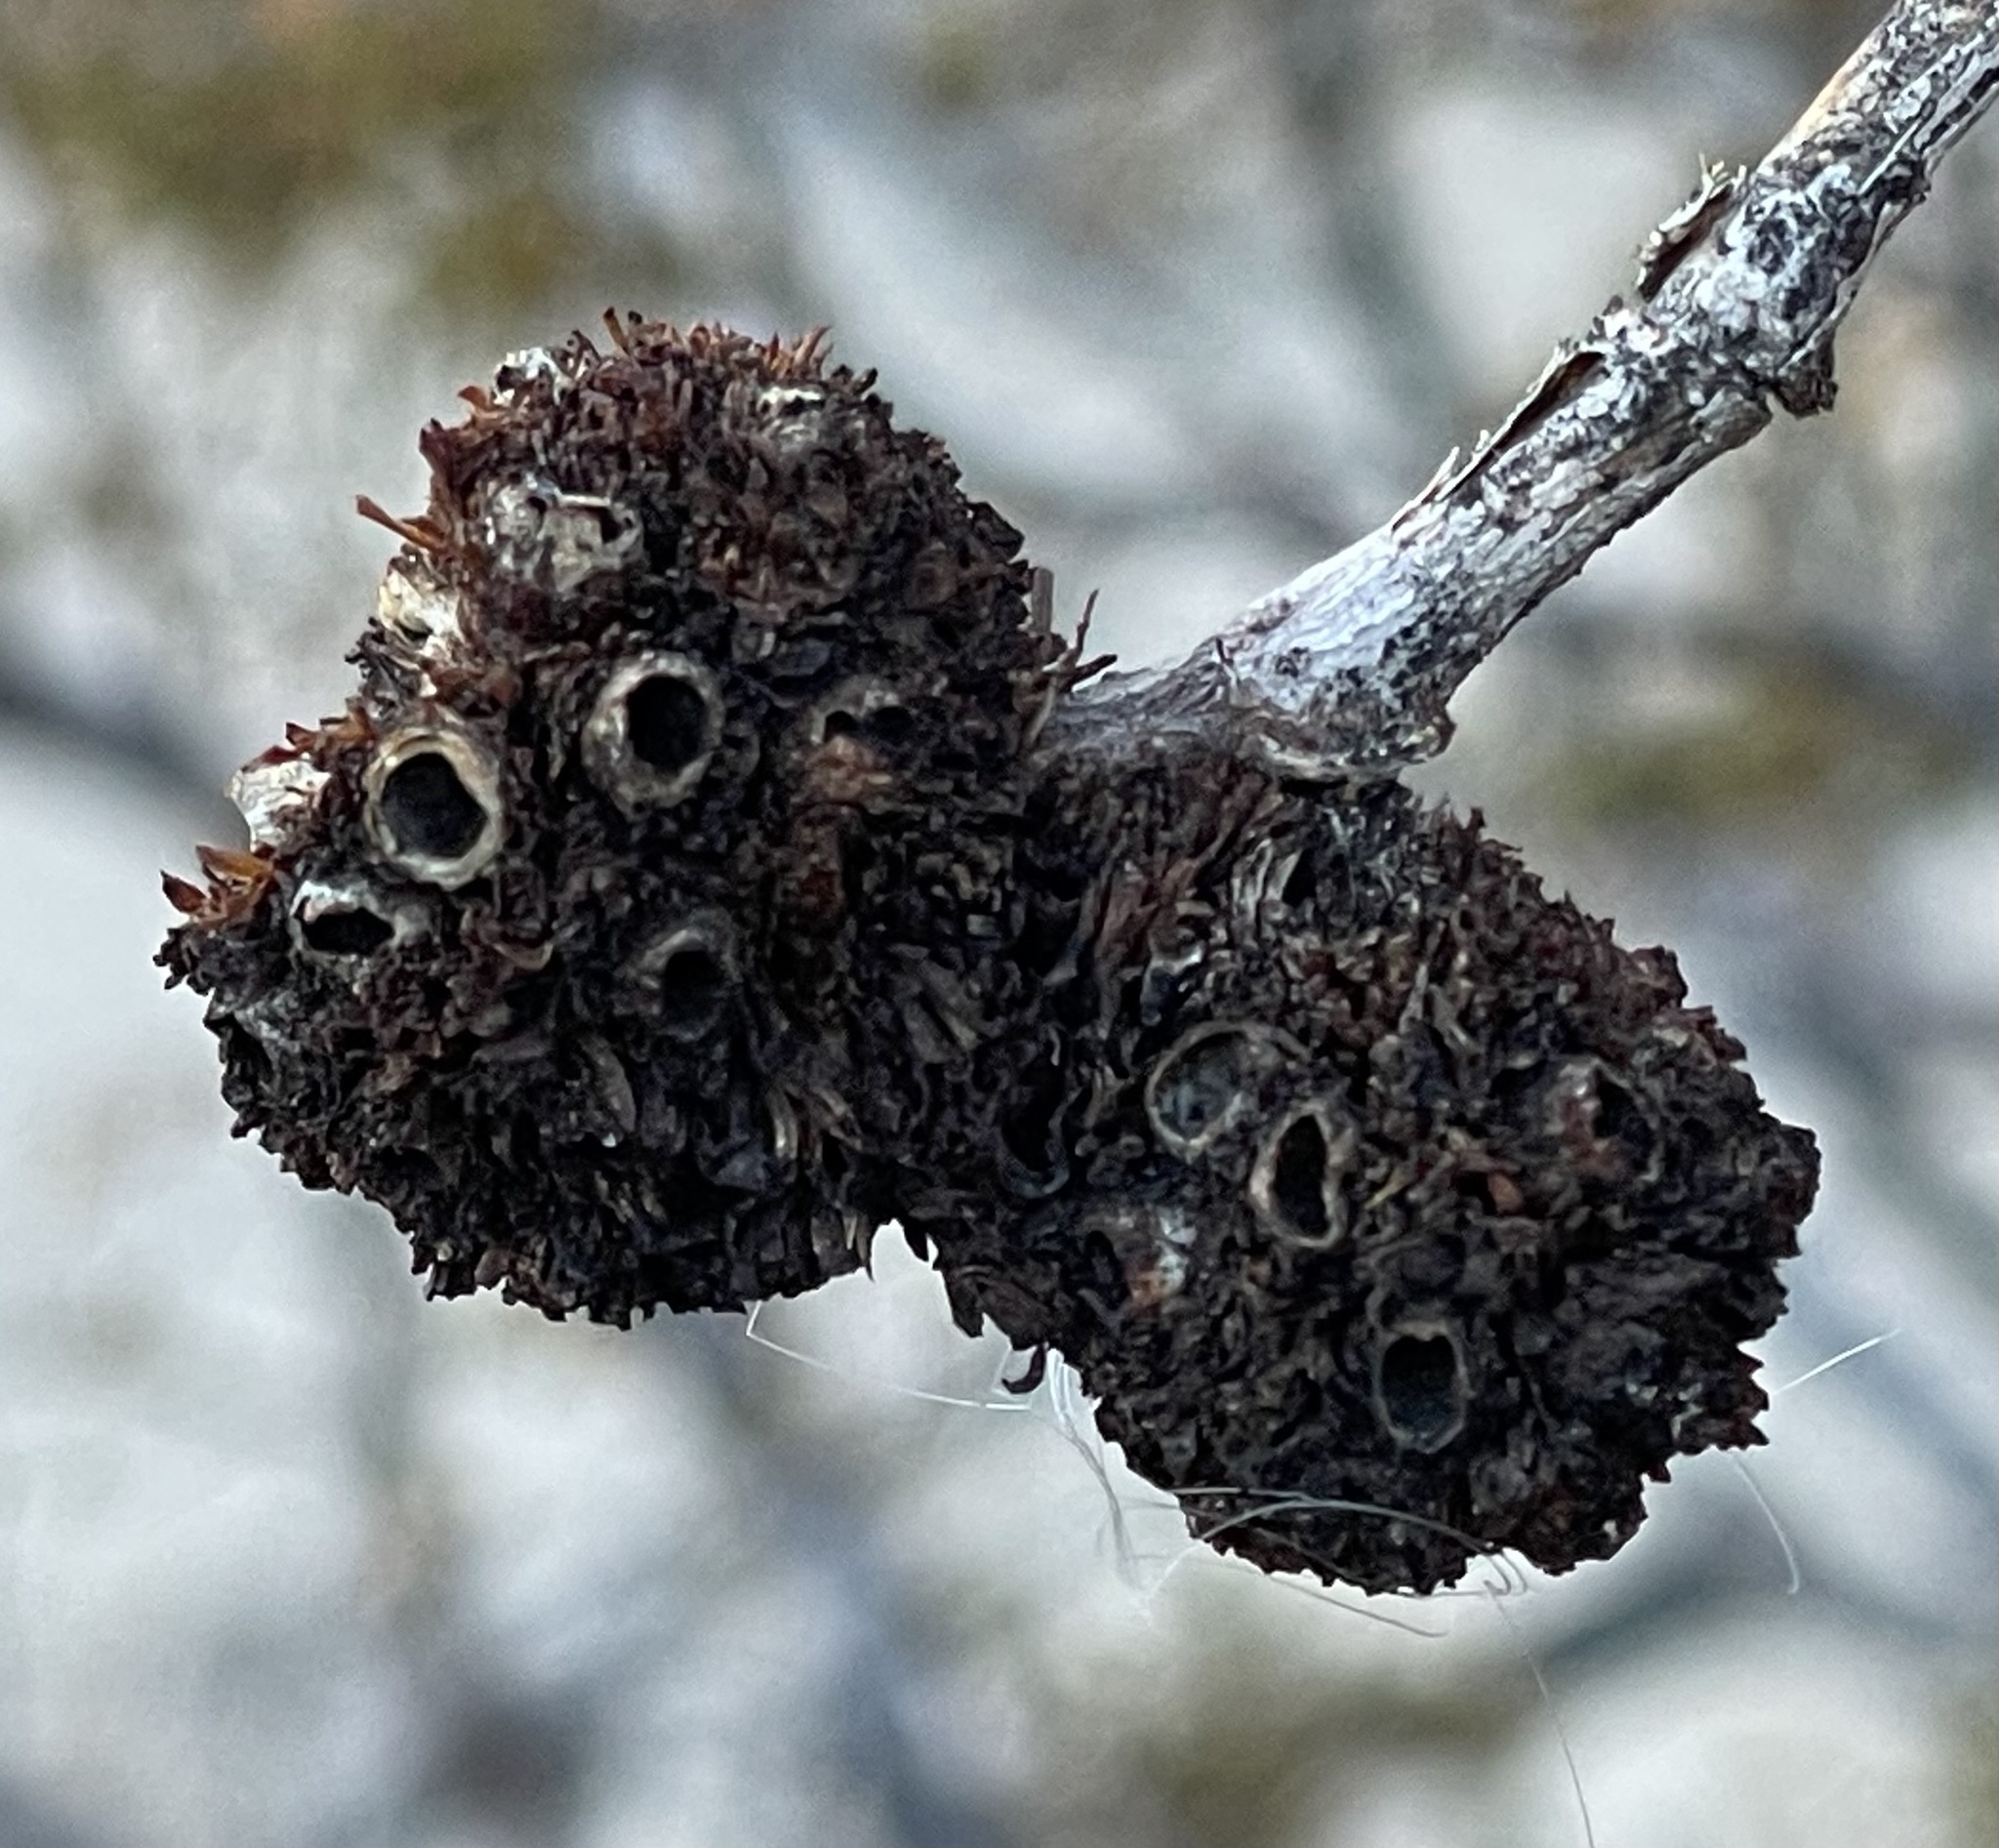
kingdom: Plantae
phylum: Tracheophyta
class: Magnoliopsida
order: Zygophyllales
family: Zygophyllaceae
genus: Larrea
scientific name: Larrea tridentata
